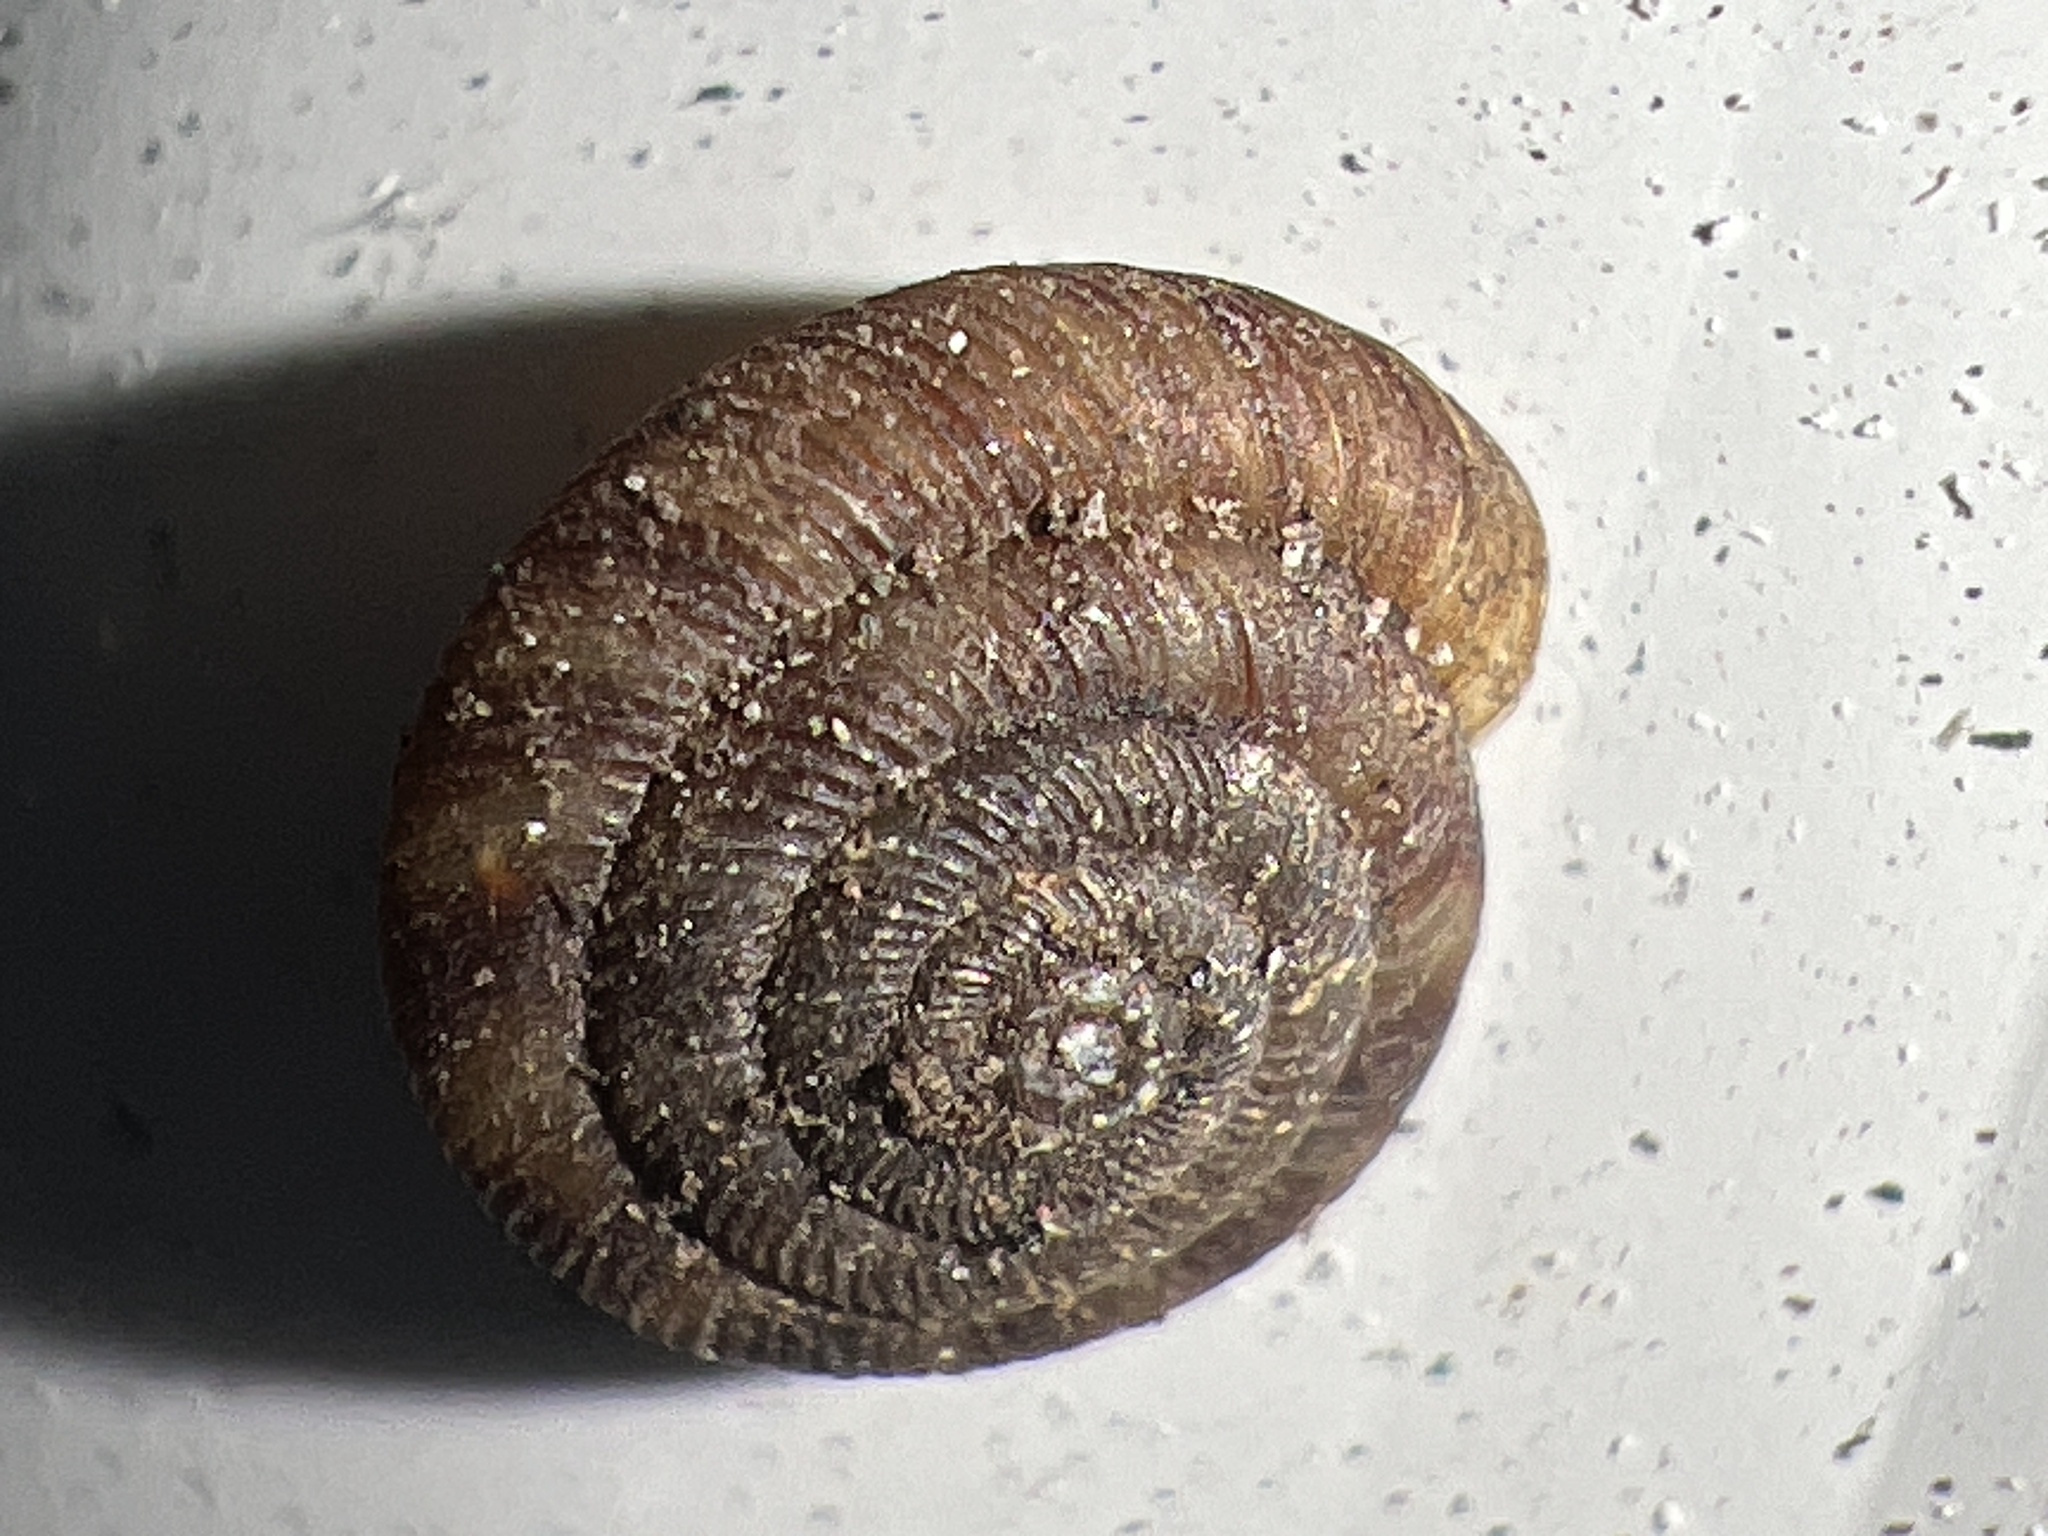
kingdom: Animalia
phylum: Mollusca
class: Gastropoda
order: Stylommatophora
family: Discidae
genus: Discus
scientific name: Discus rotundatus
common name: Rounded snail
